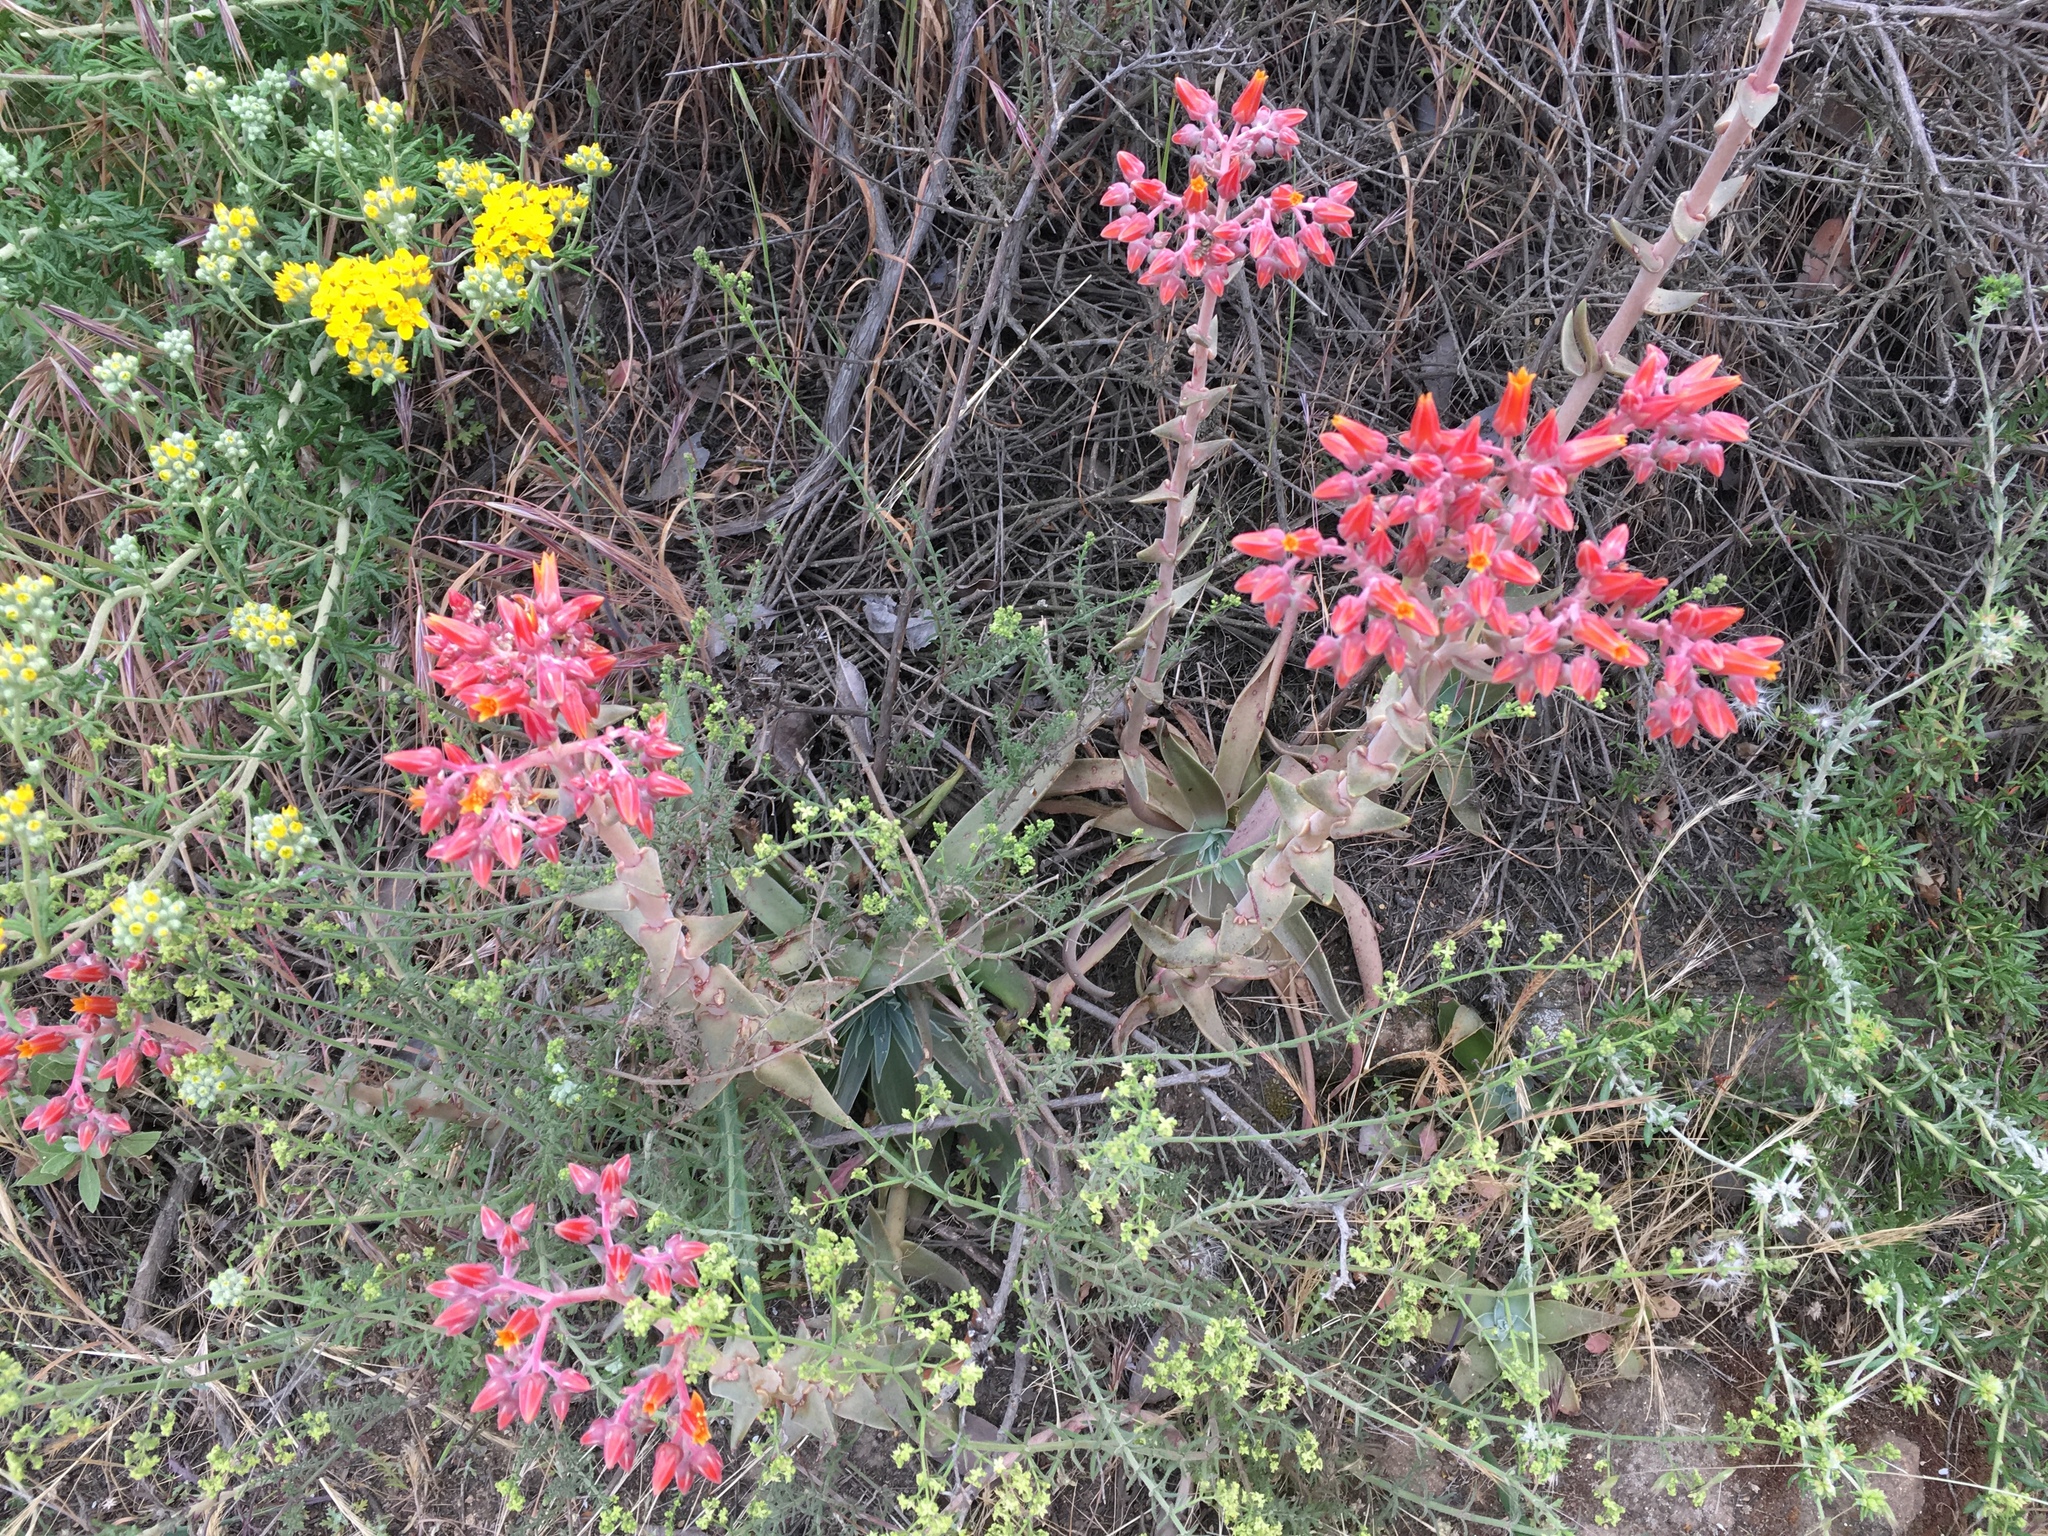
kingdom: Plantae
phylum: Tracheophyta
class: Magnoliopsida
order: Saxifragales
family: Crassulaceae
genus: Dudleya
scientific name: Dudleya lanceolata
